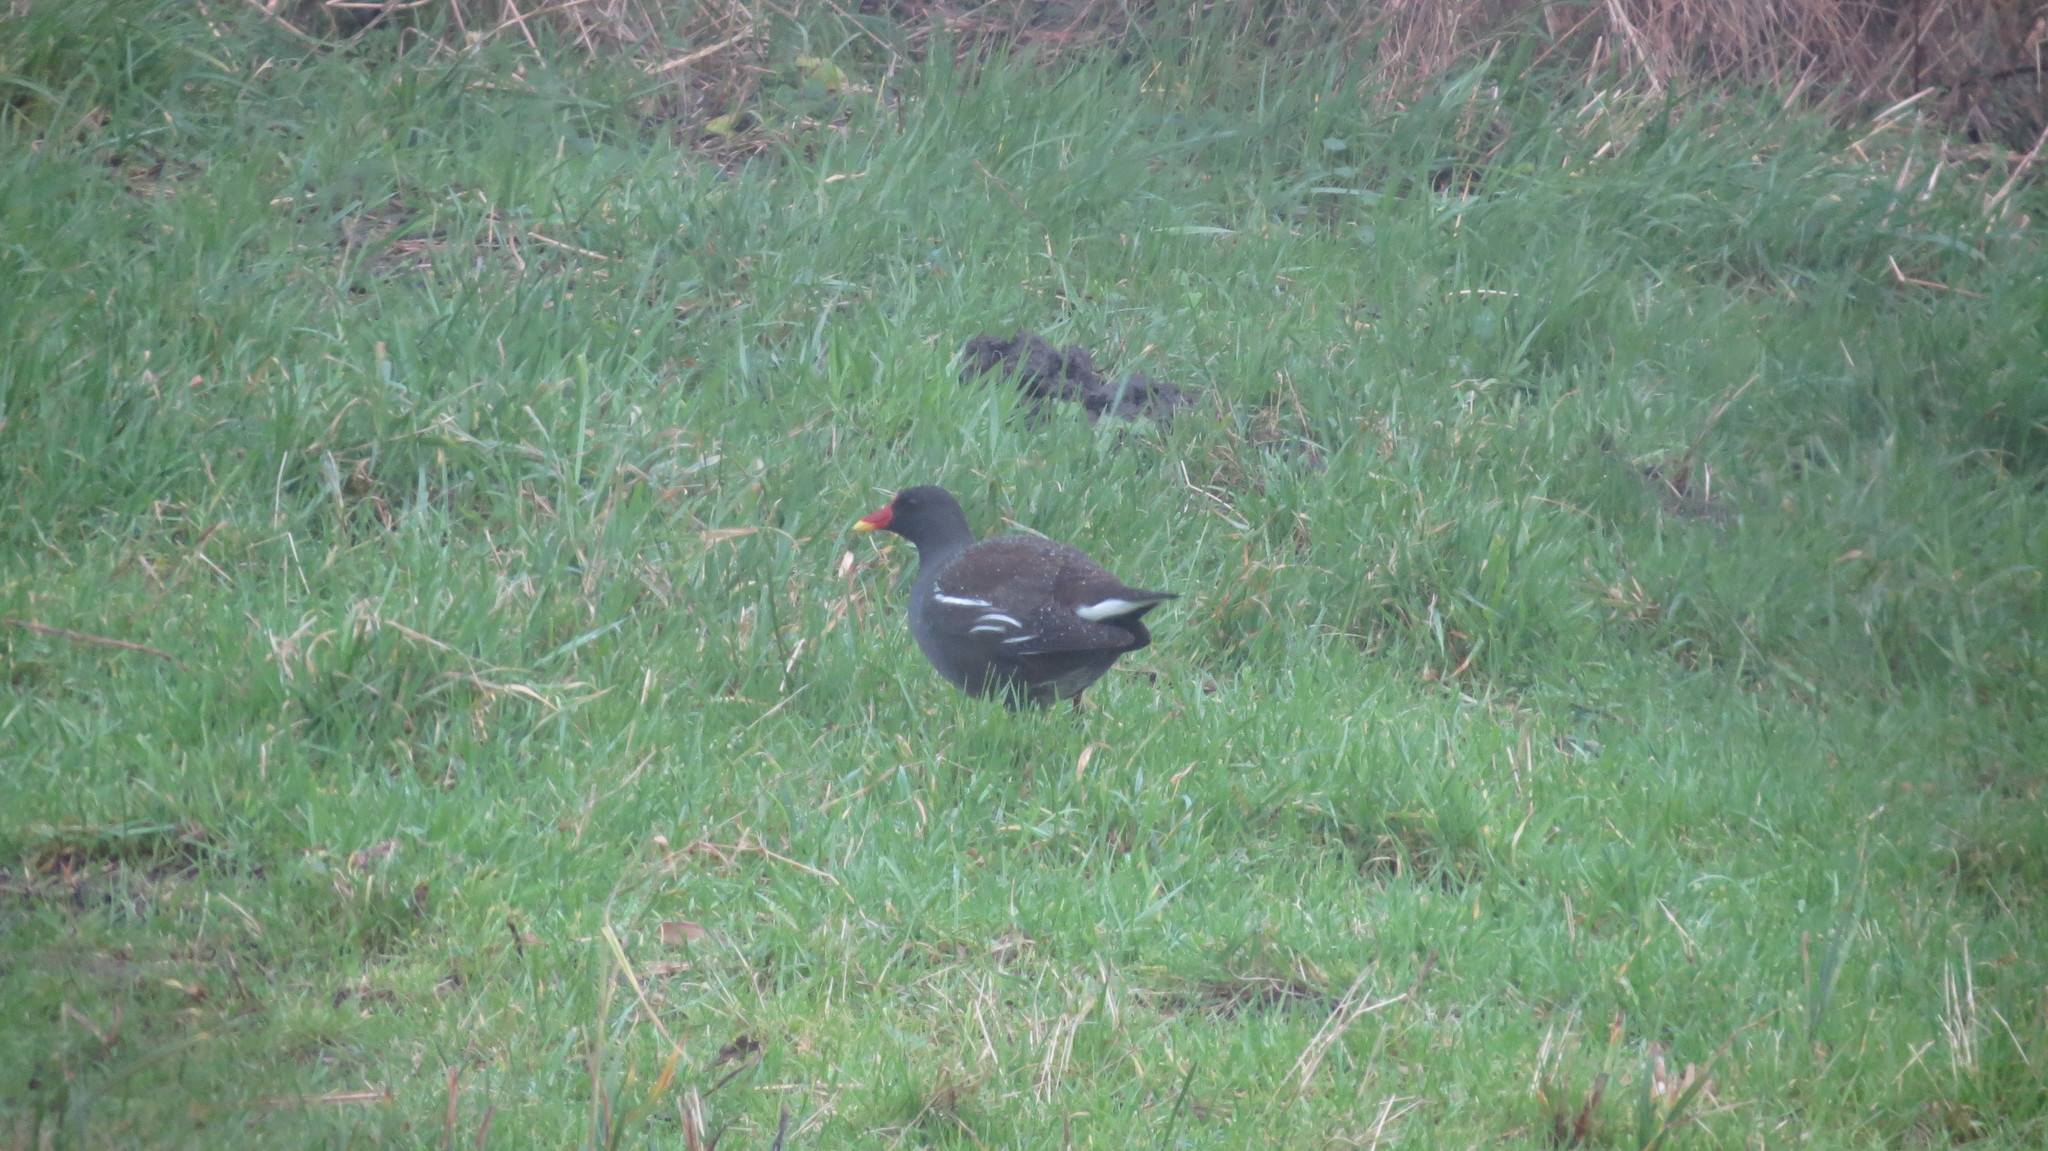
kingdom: Animalia
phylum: Chordata
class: Aves
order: Gruiformes
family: Rallidae
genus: Gallinula
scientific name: Gallinula chloropus
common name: Common moorhen
